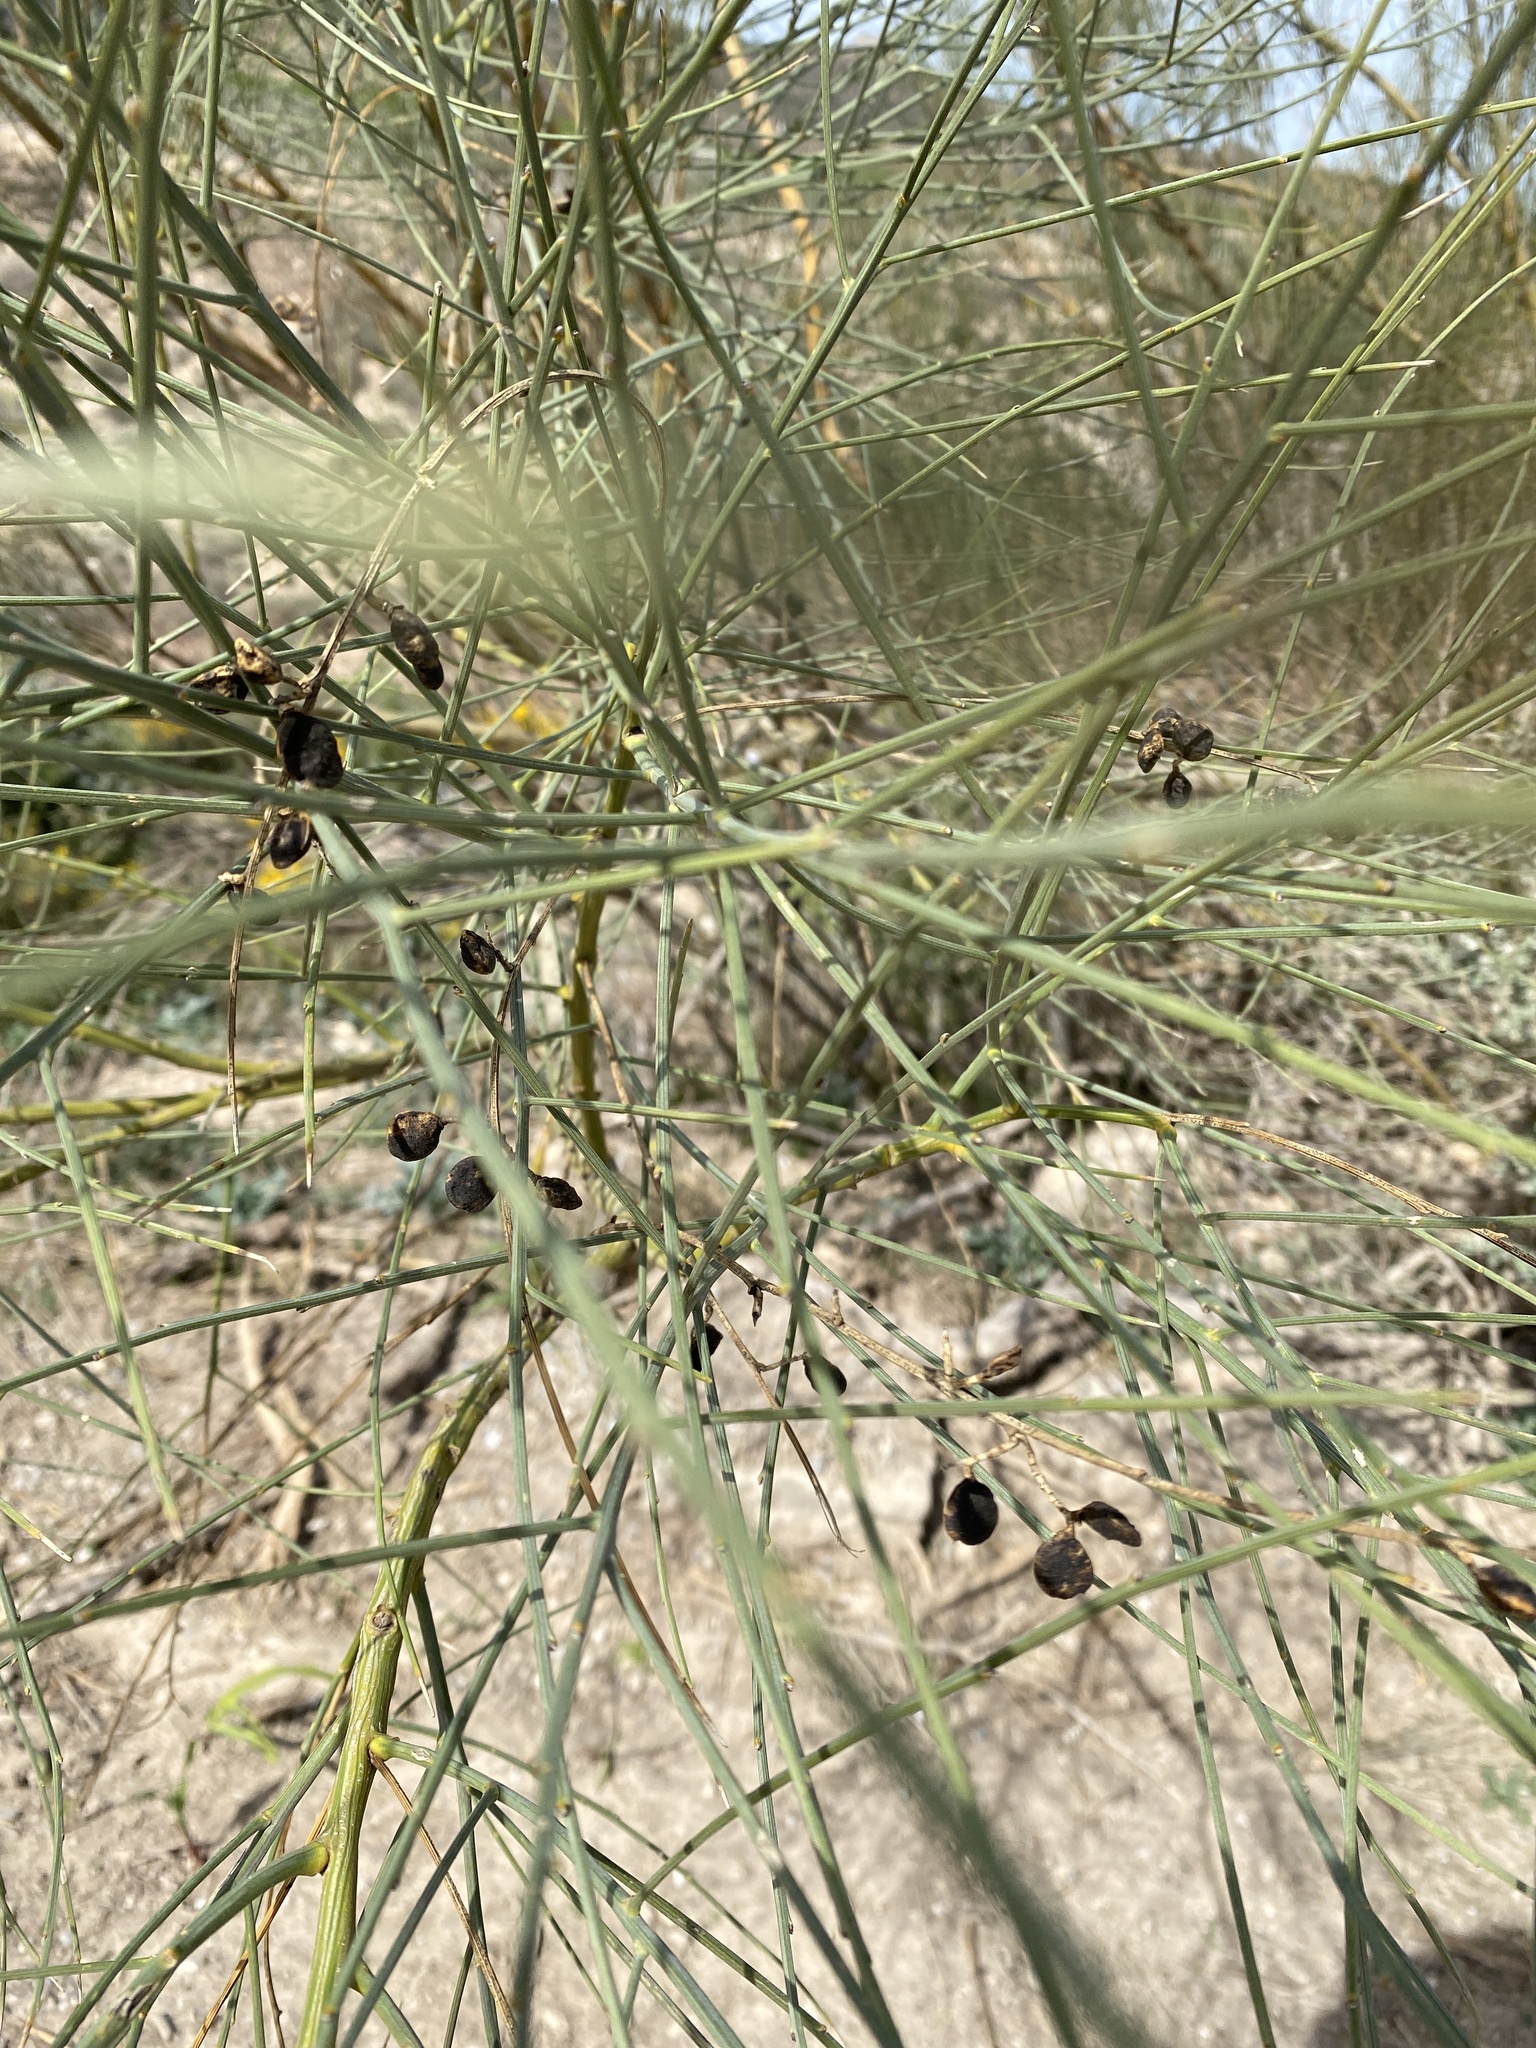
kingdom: Plantae
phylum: Tracheophyta
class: Magnoliopsida
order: Fabales
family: Fabaceae
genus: Retama
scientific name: Retama sphaerocarpa
